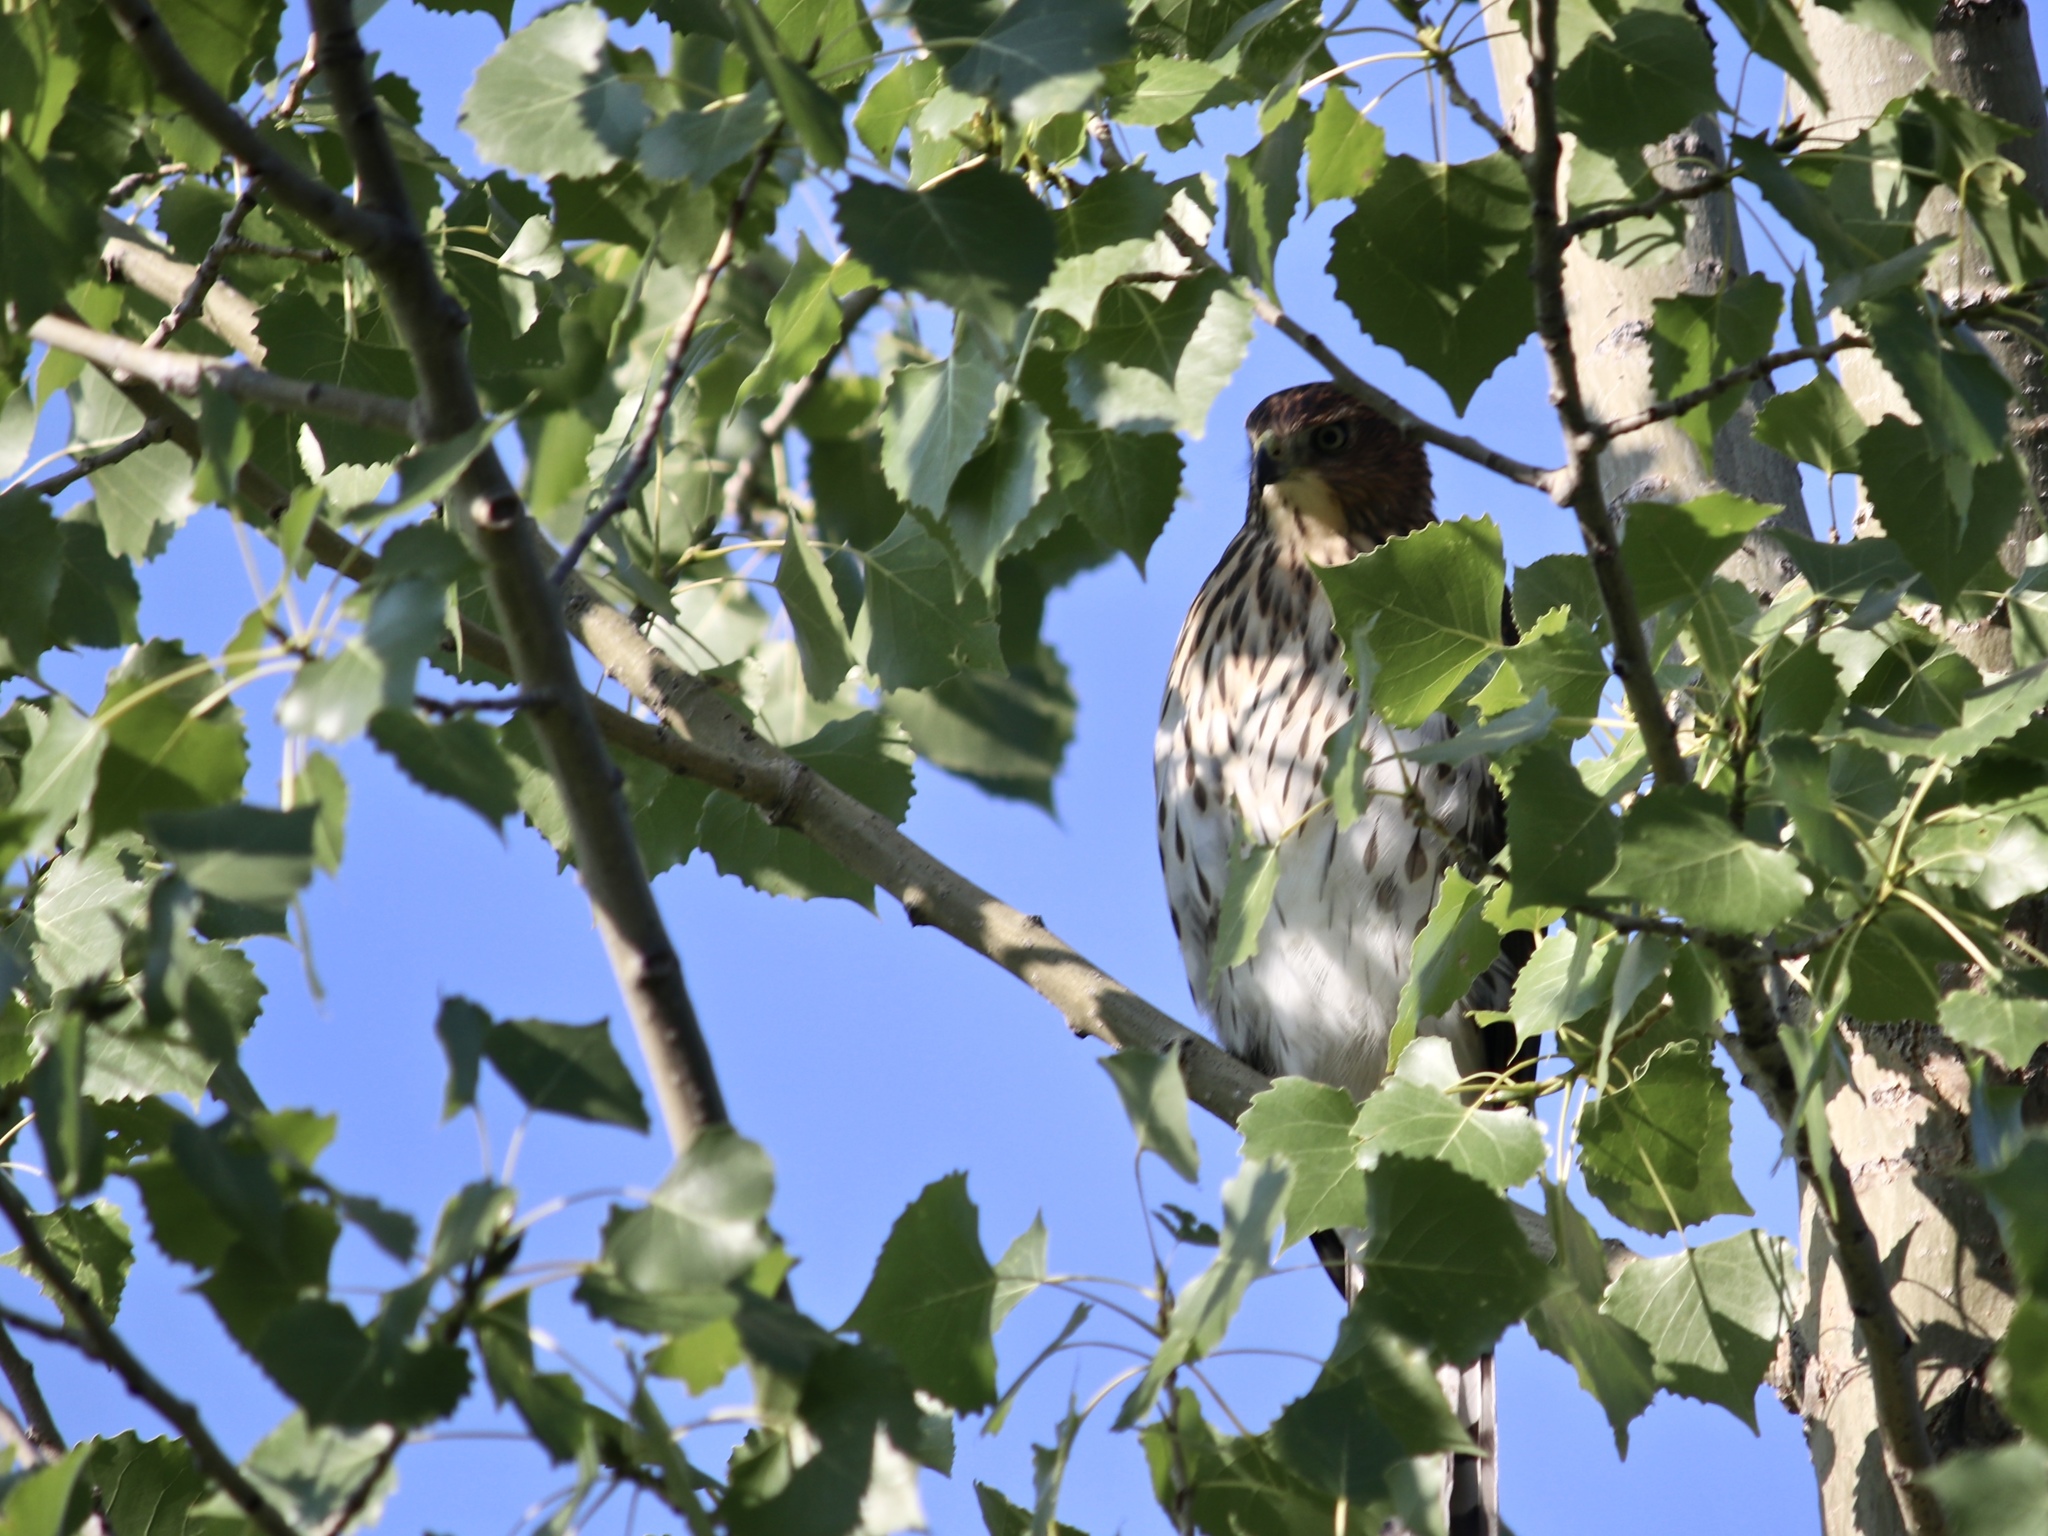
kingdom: Animalia
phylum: Chordata
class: Aves
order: Accipitriformes
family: Accipitridae
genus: Accipiter
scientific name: Accipiter cooperii
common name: Cooper's hawk
